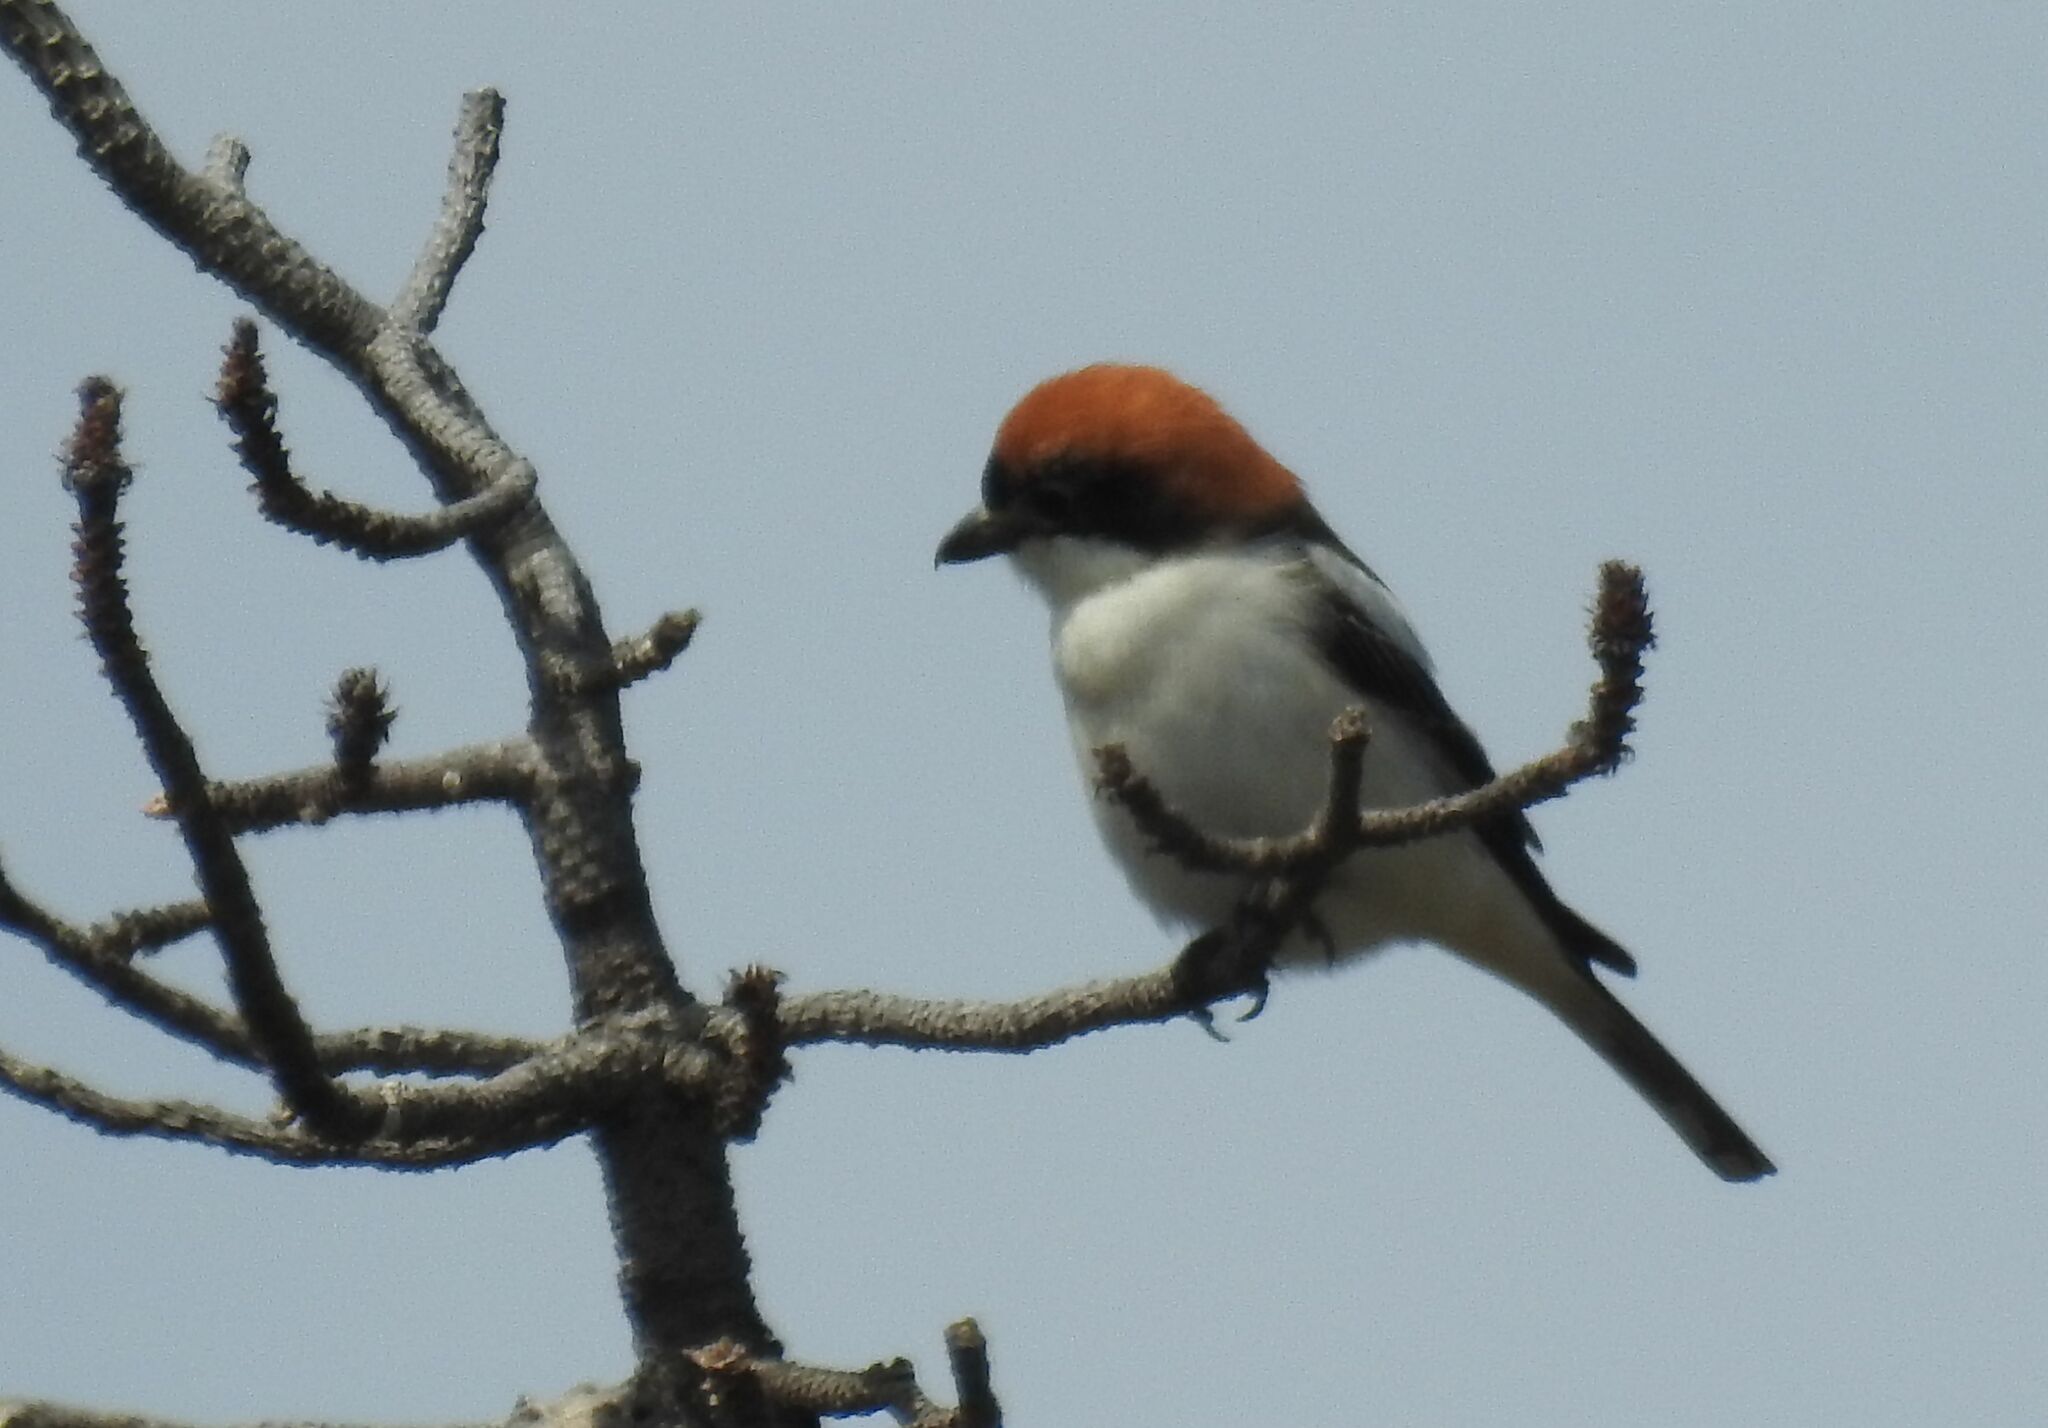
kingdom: Animalia
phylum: Chordata
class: Aves
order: Passeriformes
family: Laniidae
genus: Lanius
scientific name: Lanius senator
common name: Woodchat shrike
